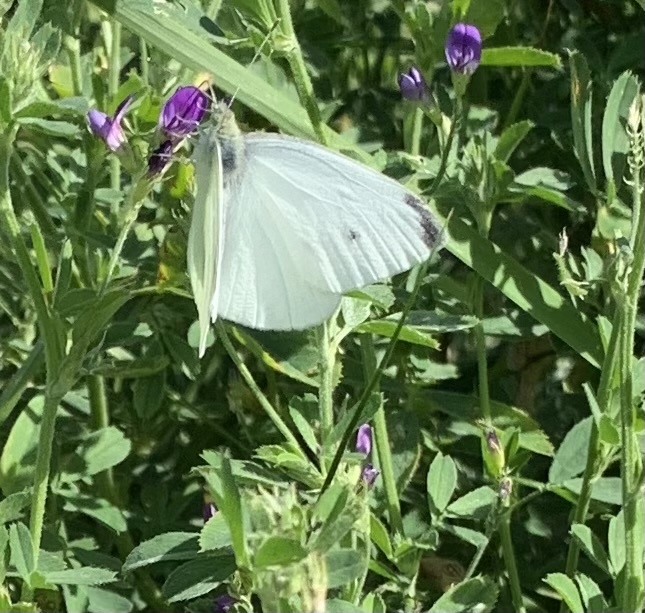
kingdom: Animalia
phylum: Arthropoda
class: Insecta
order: Lepidoptera
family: Pieridae
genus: Pieris
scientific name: Pieris rapae
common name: Small white
